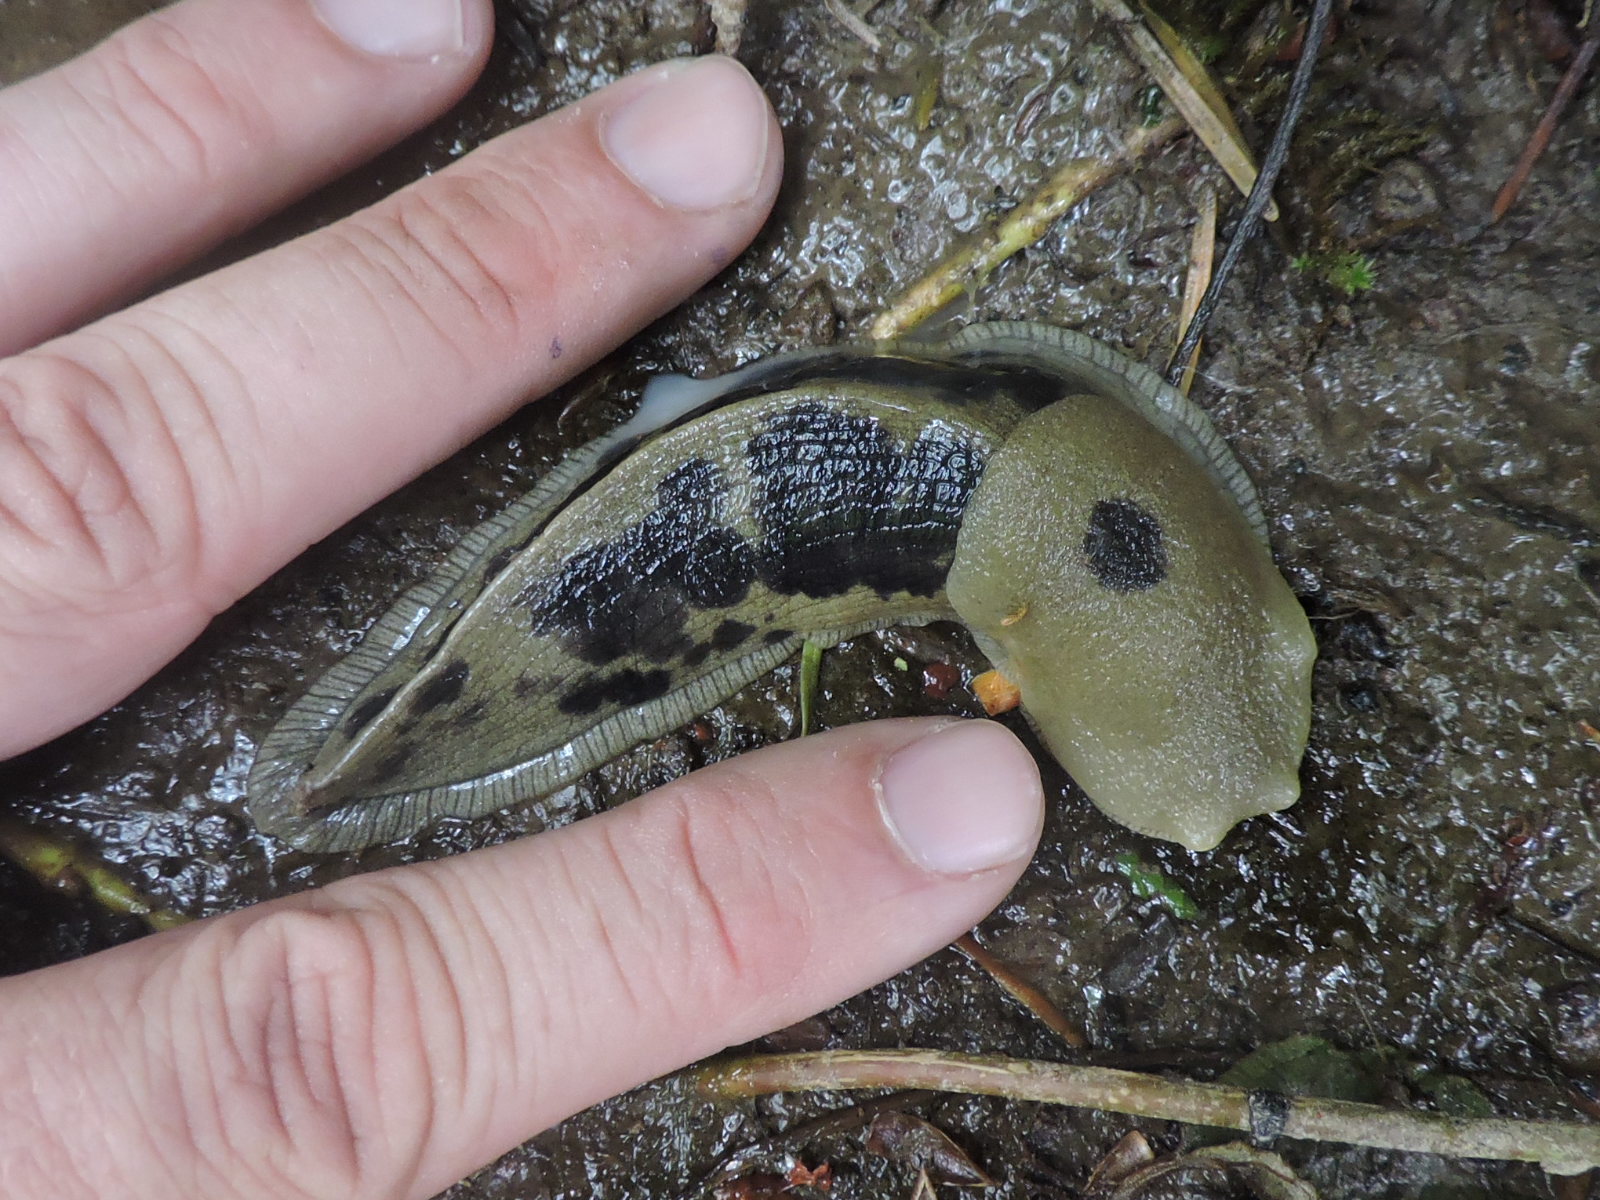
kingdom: Animalia
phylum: Mollusca
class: Gastropoda
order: Stylommatophora
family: Ariolimacidae
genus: Ariolimax
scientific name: Ariolimax columbianus
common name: Pacific banana slug
